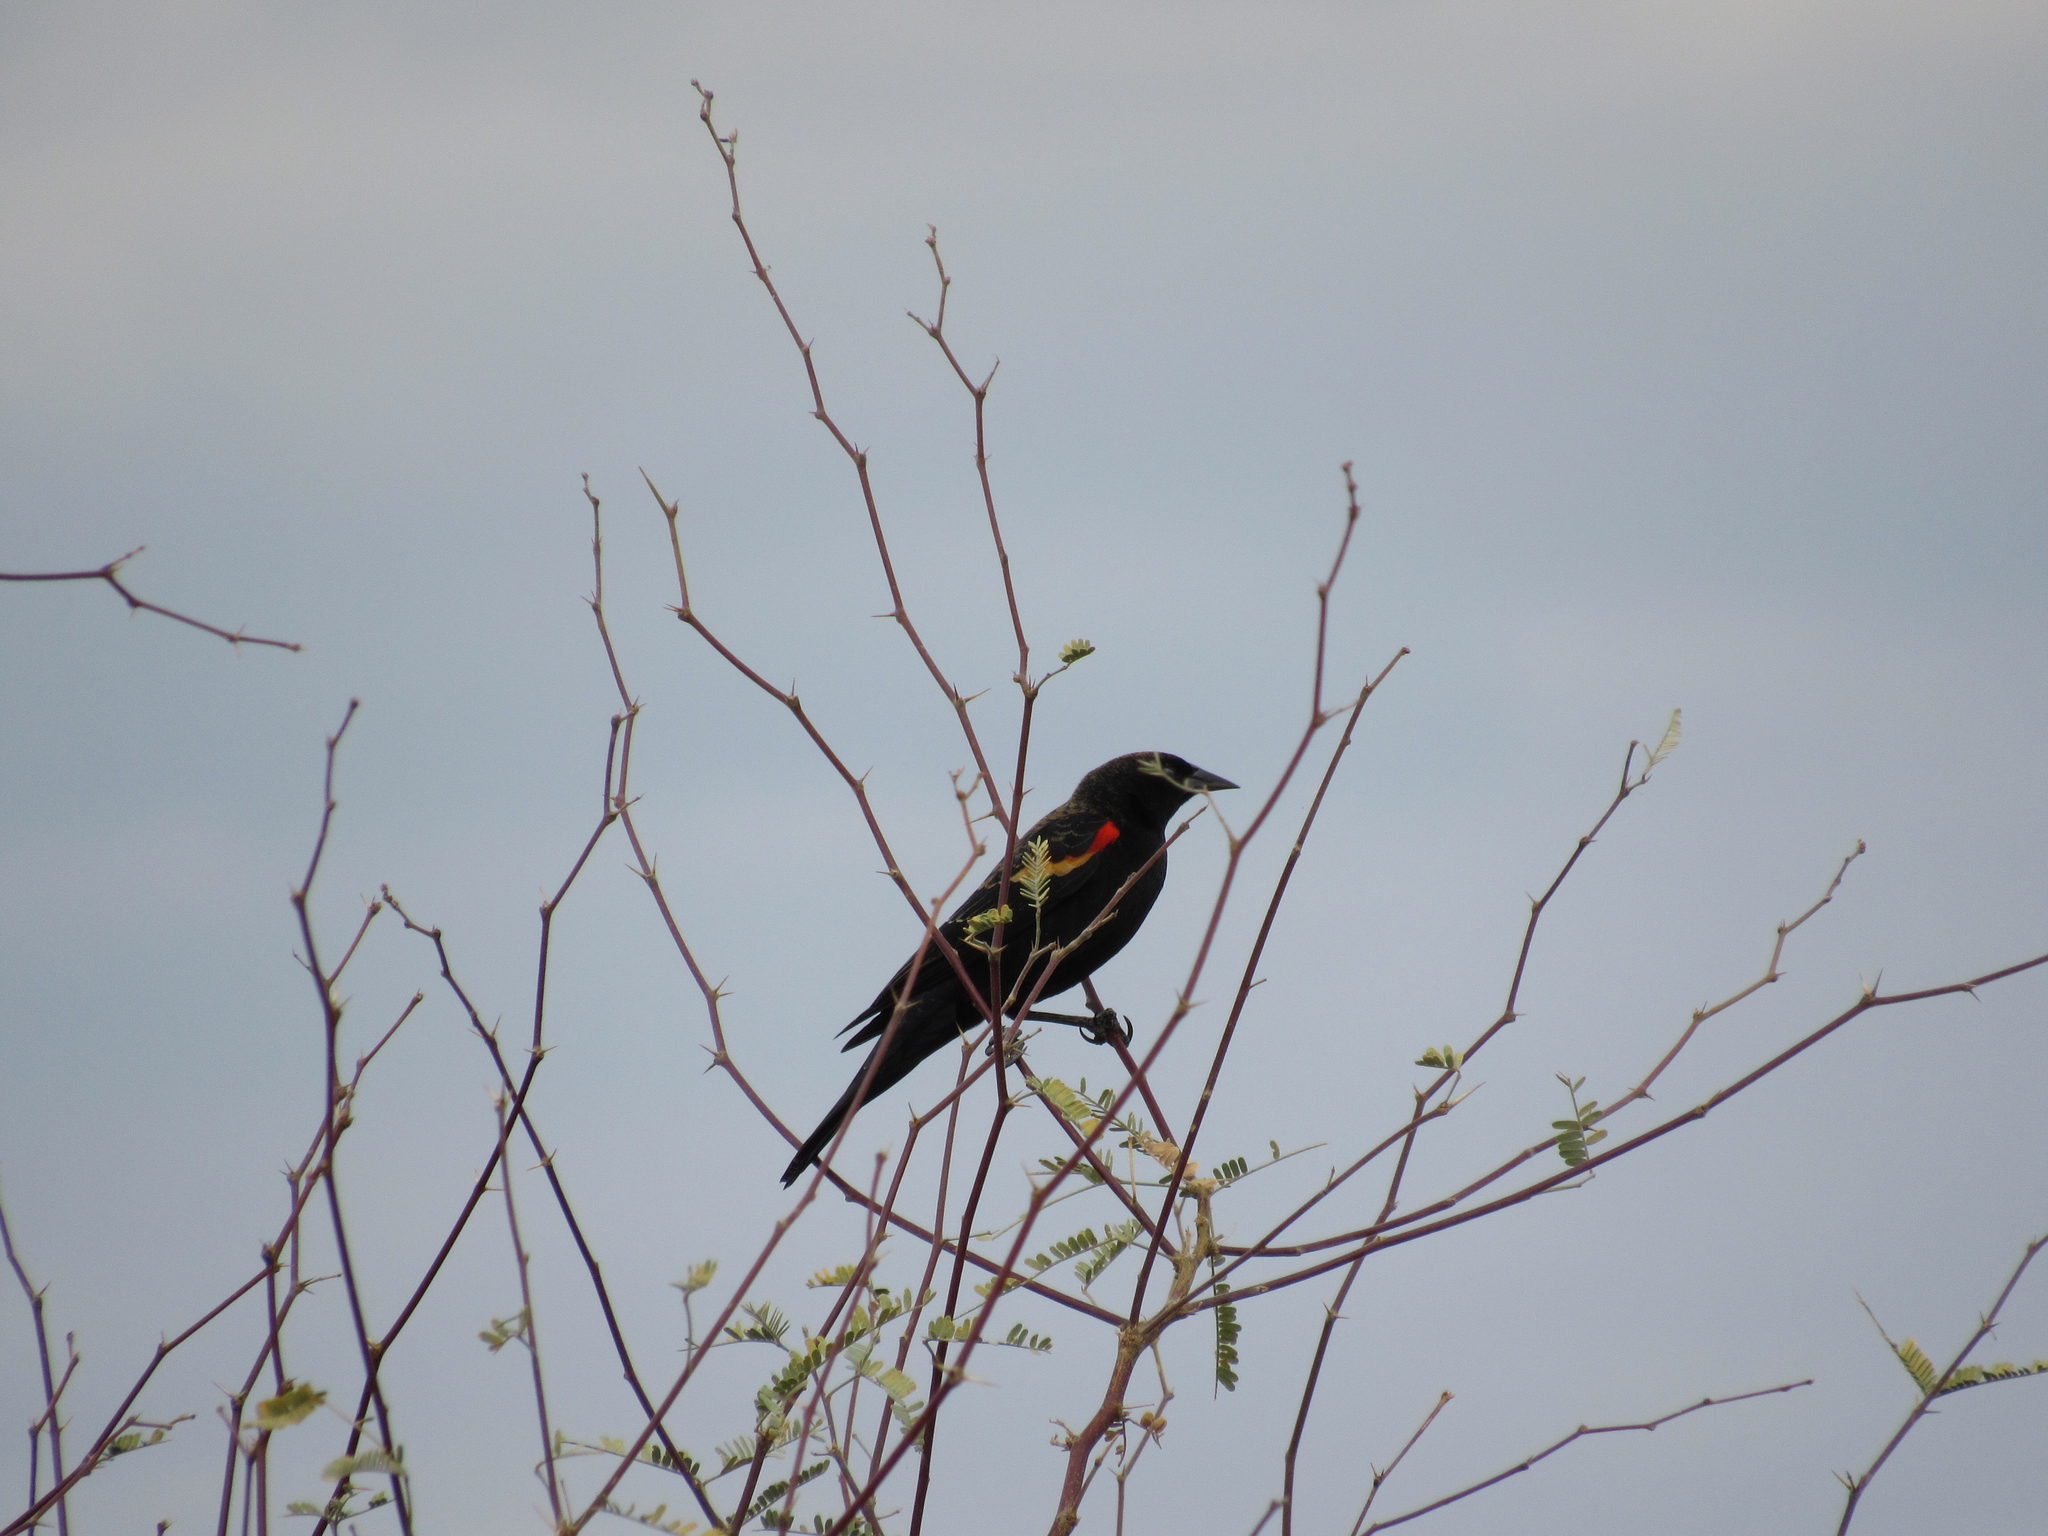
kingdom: Animalia
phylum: Chordata
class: Aves
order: Passeriformes
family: Icteridae
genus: Agelaius
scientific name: Agelaius phoeniceus
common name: Red-winged blackbird
